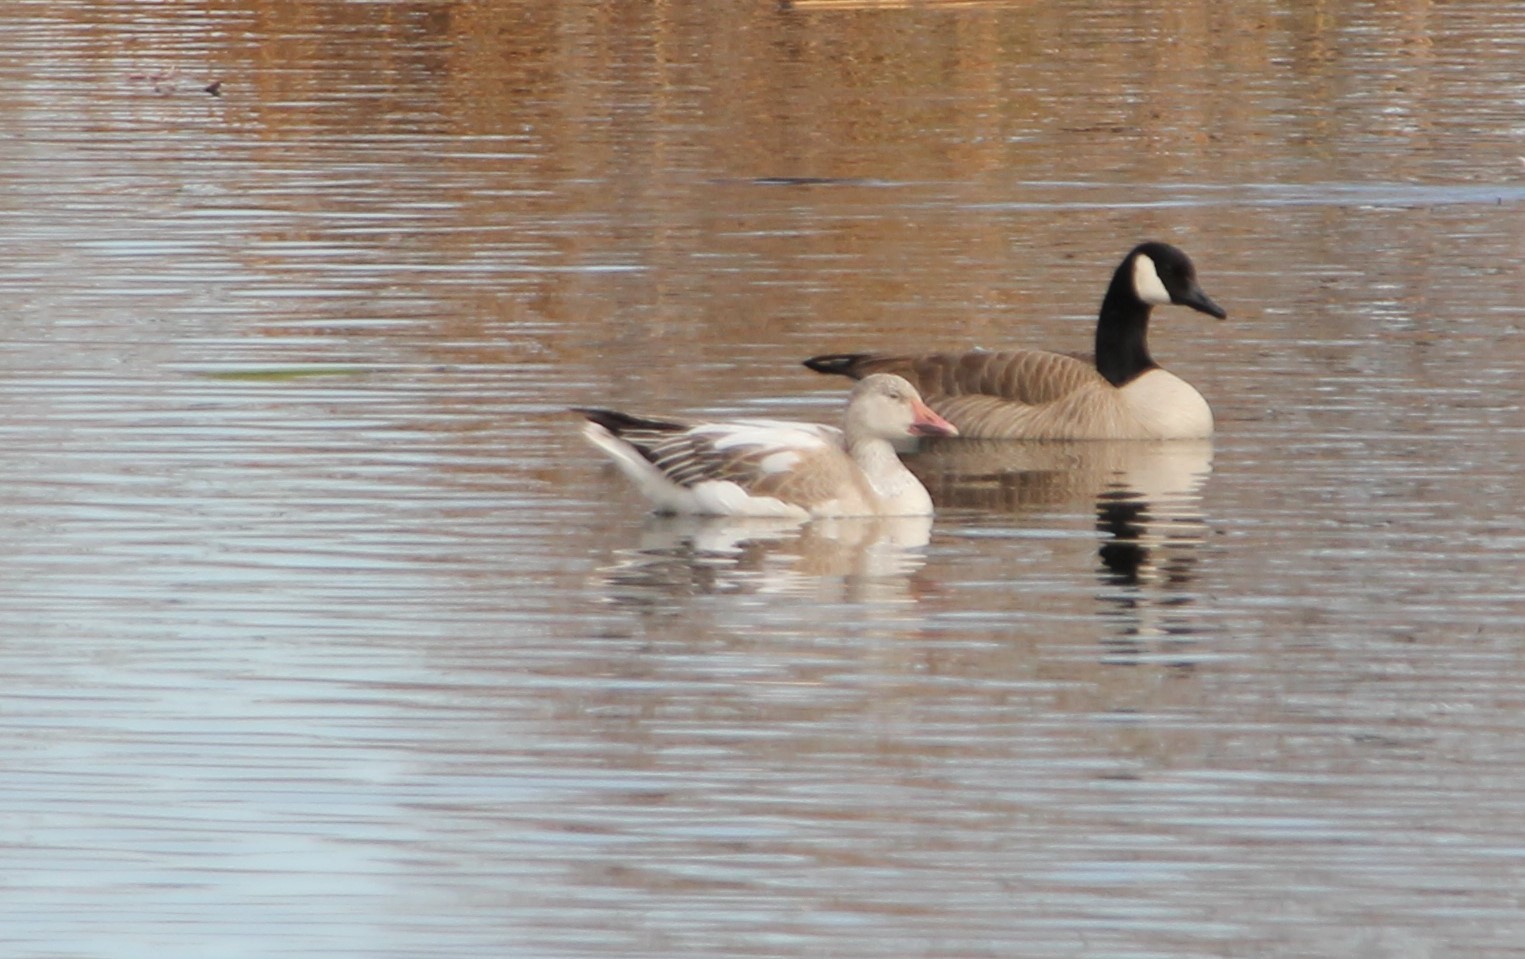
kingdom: Animalia
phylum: Chordata
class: Aves
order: Anseriformes
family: Anatidae
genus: Anser
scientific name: Anser caerulescens
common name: Snow goose
